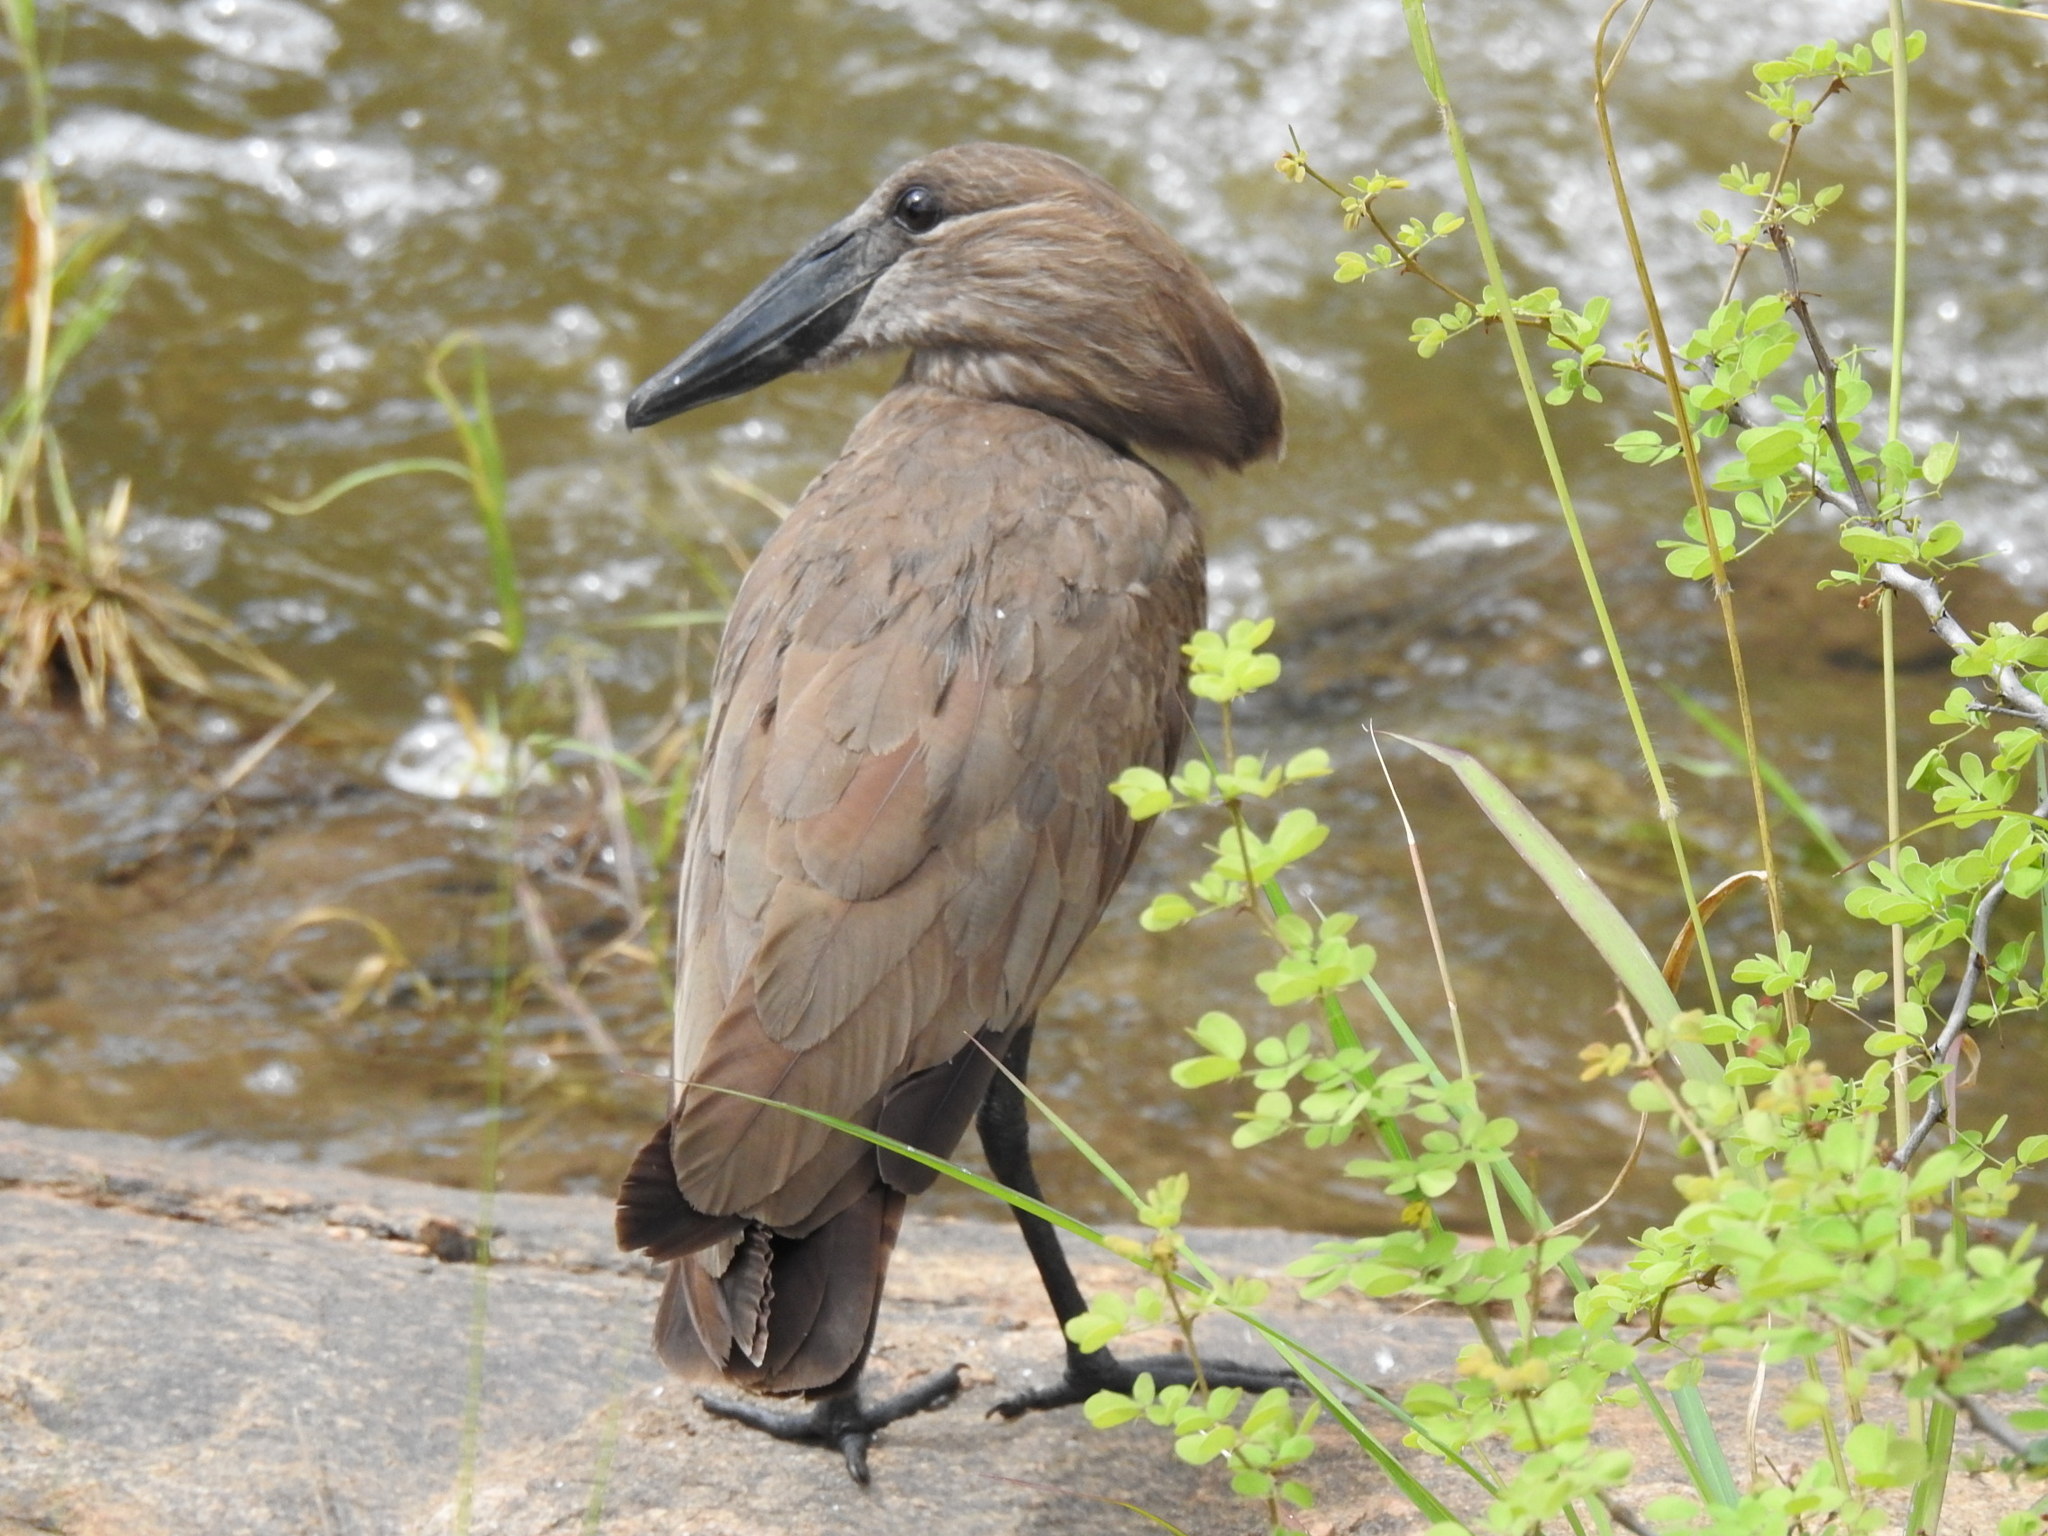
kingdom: Animalia
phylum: Chordata
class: Aves
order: Pelecaniformes
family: Scopidae
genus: Scopus
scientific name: Scopus umbretta
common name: Hamerkop
